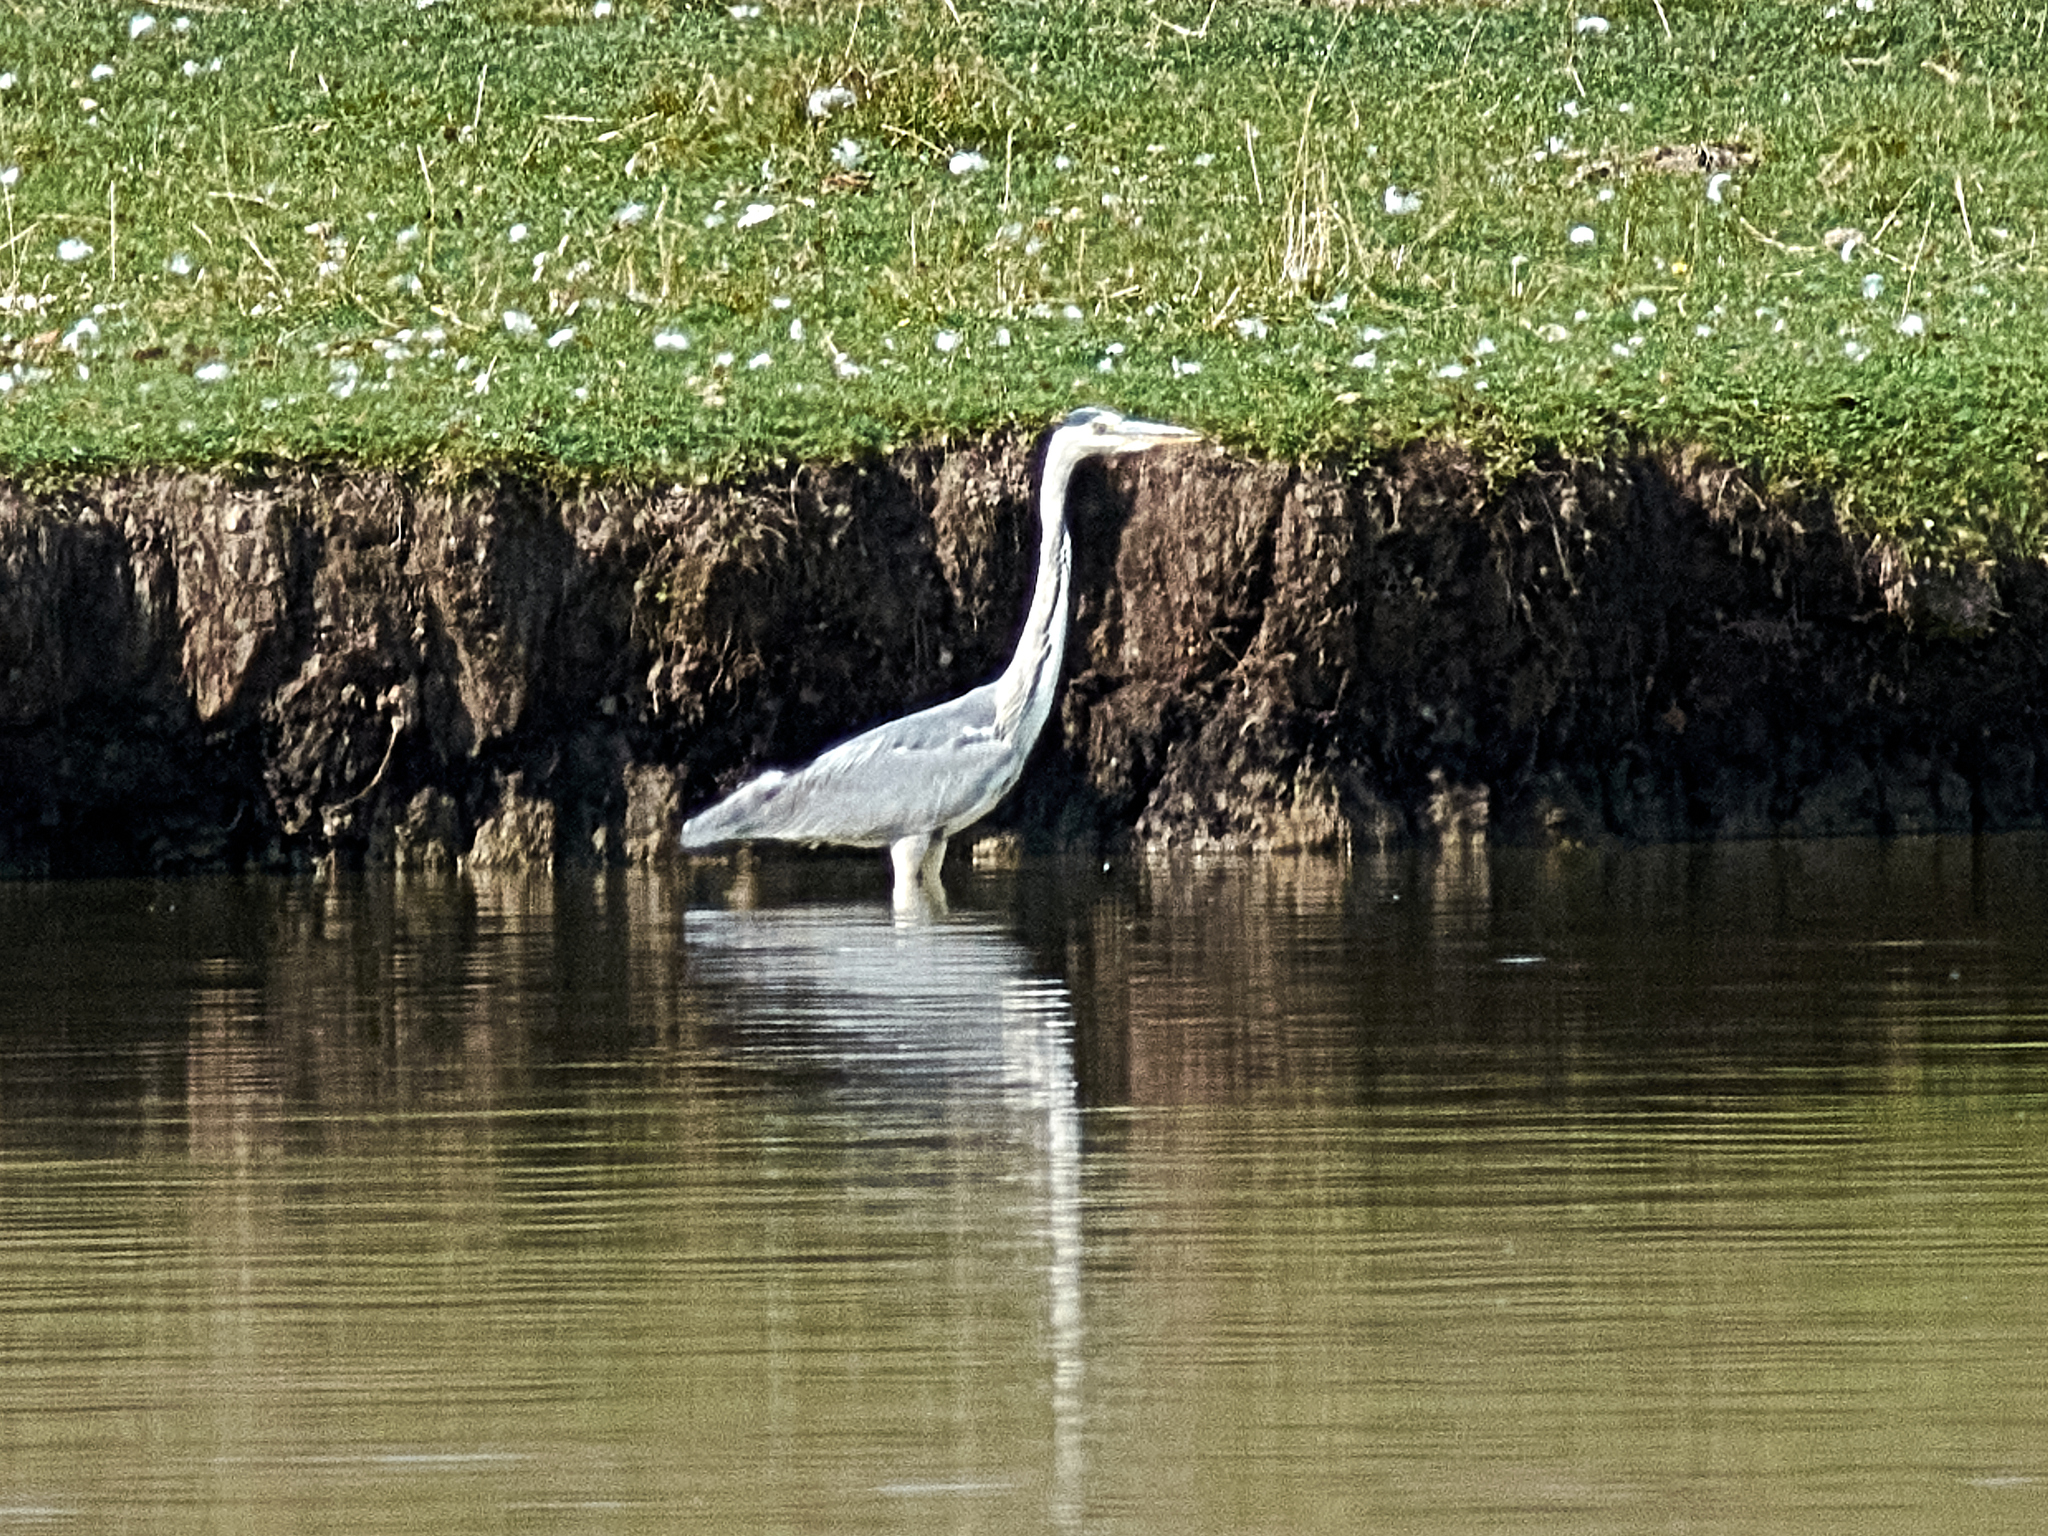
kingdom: Animalia
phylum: Chordata
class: Aves
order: Pelecaniformes
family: Ardeidae
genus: Ardea
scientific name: Ardea cinerea
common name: Grey heron
